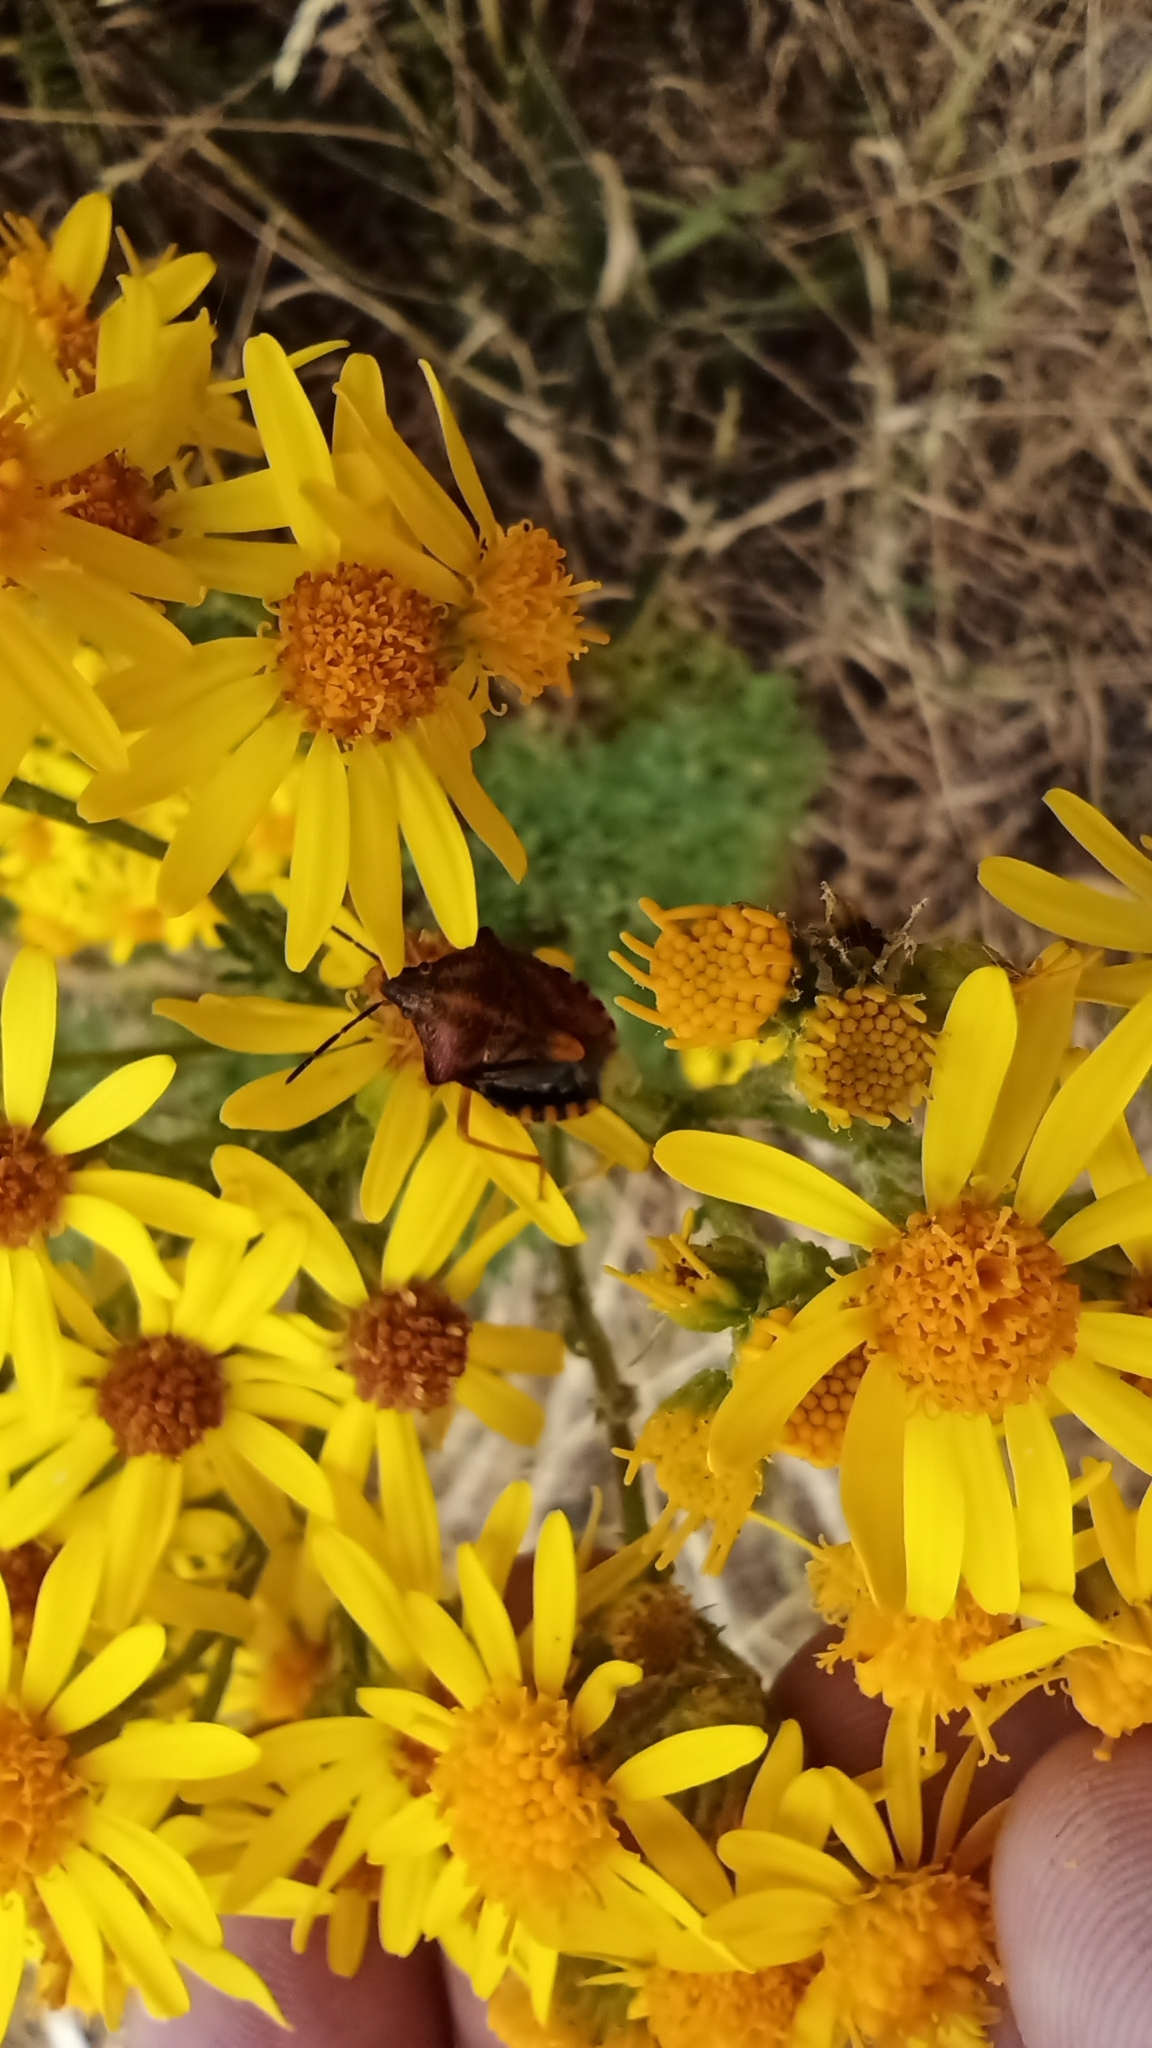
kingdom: Animalia
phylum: Arthropoda
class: Insecta
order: Hemiptera
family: Pentatomidae
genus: Carpocoris
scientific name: Carpocoris purpureipennis
